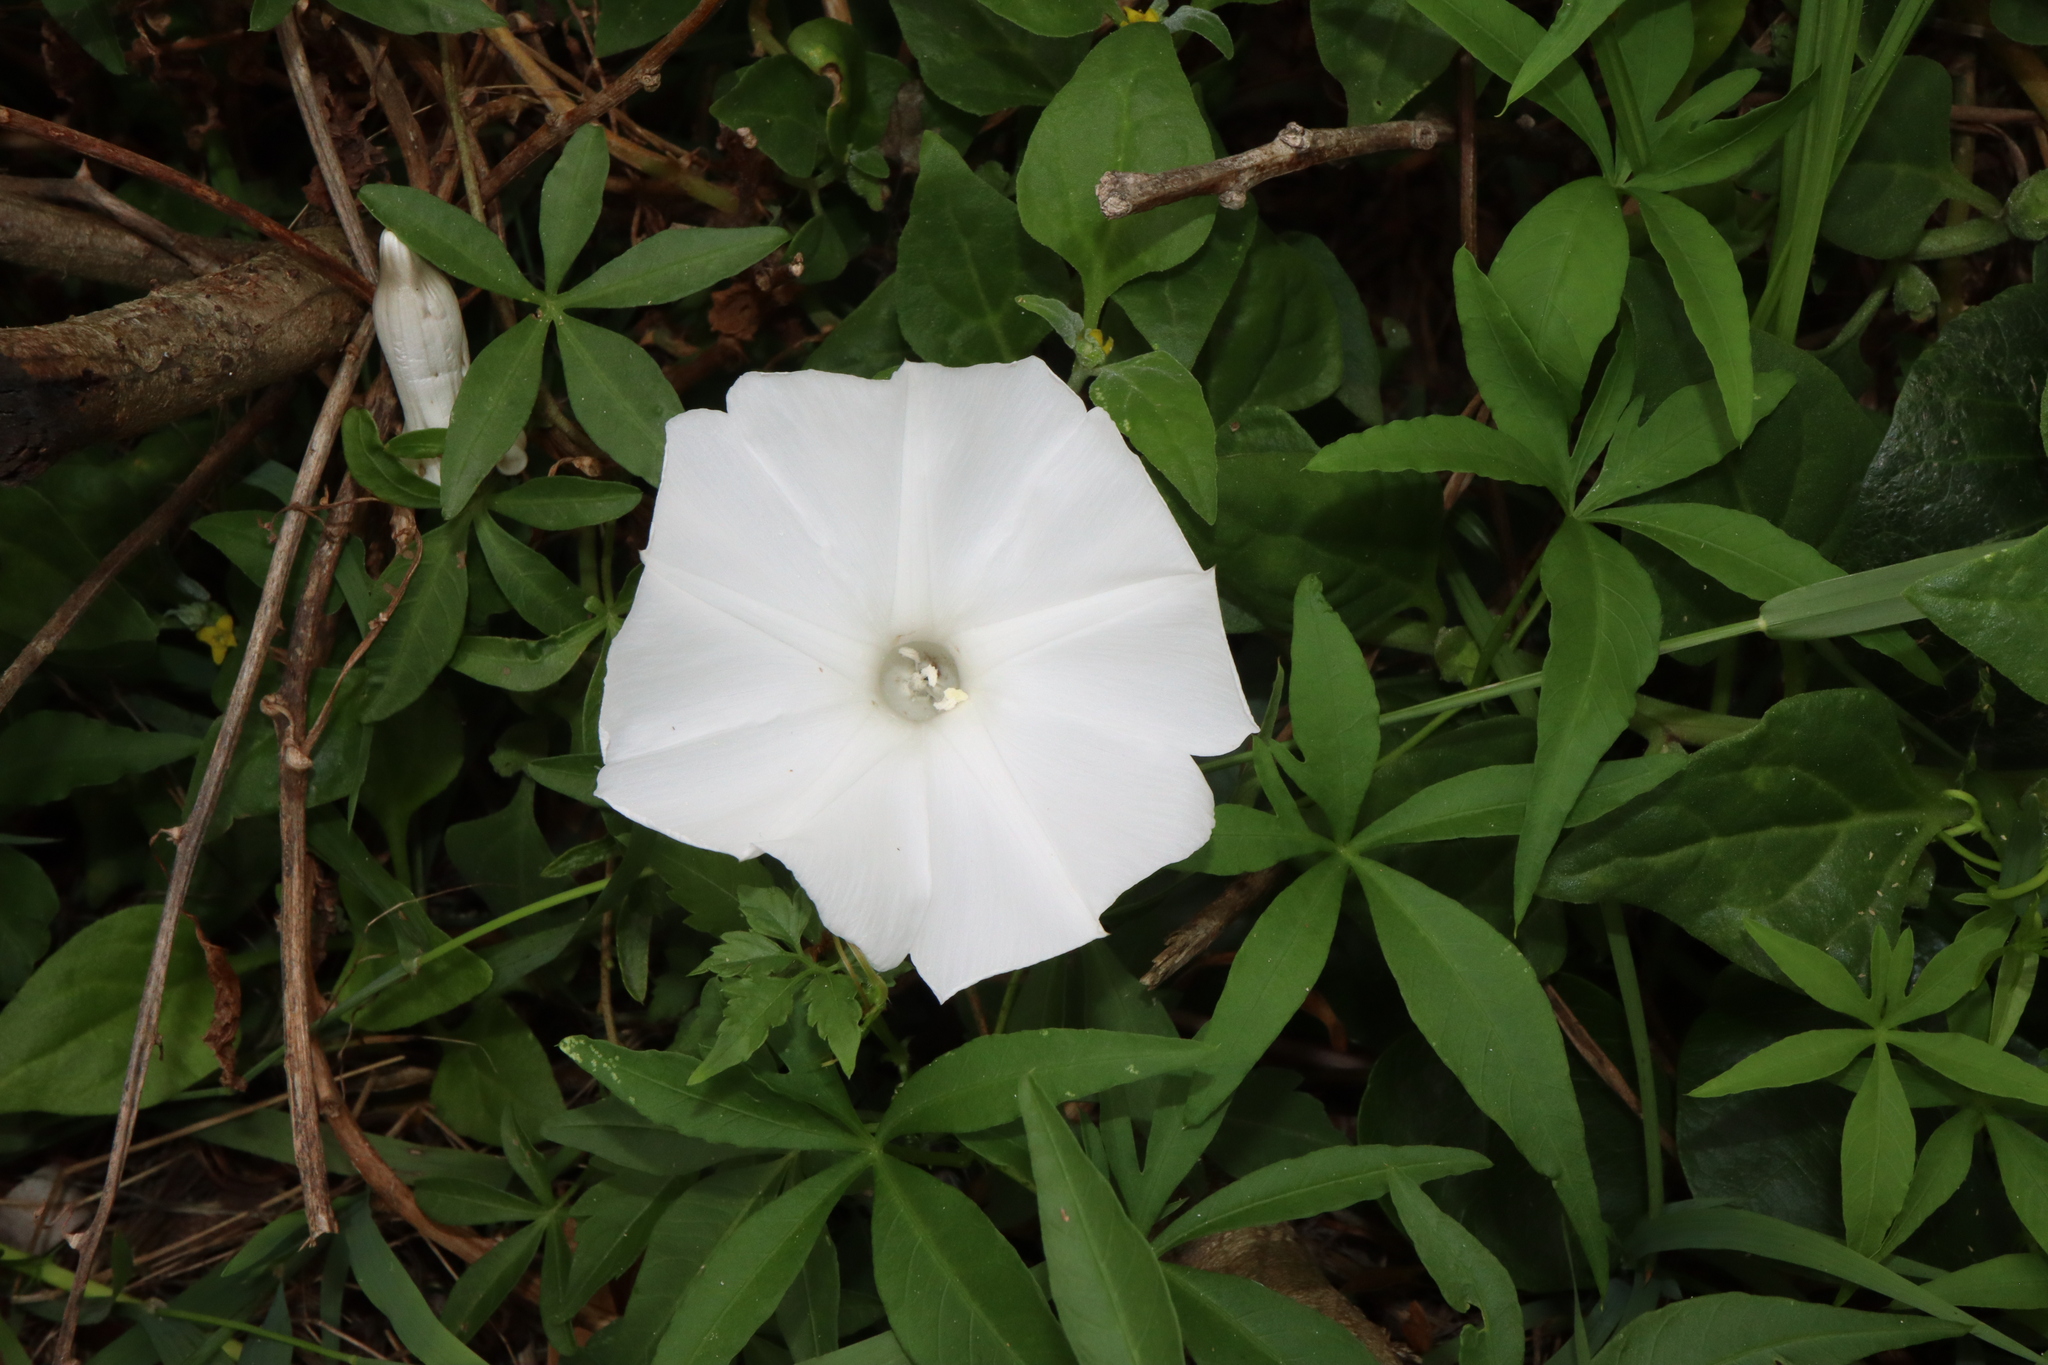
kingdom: Plantae
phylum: Tracheophyta
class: Magnoliopsida
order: Solanales
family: Convolvulaceae
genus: Ipomoea
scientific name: Ipomoea cairica
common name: Mile a minute vine
